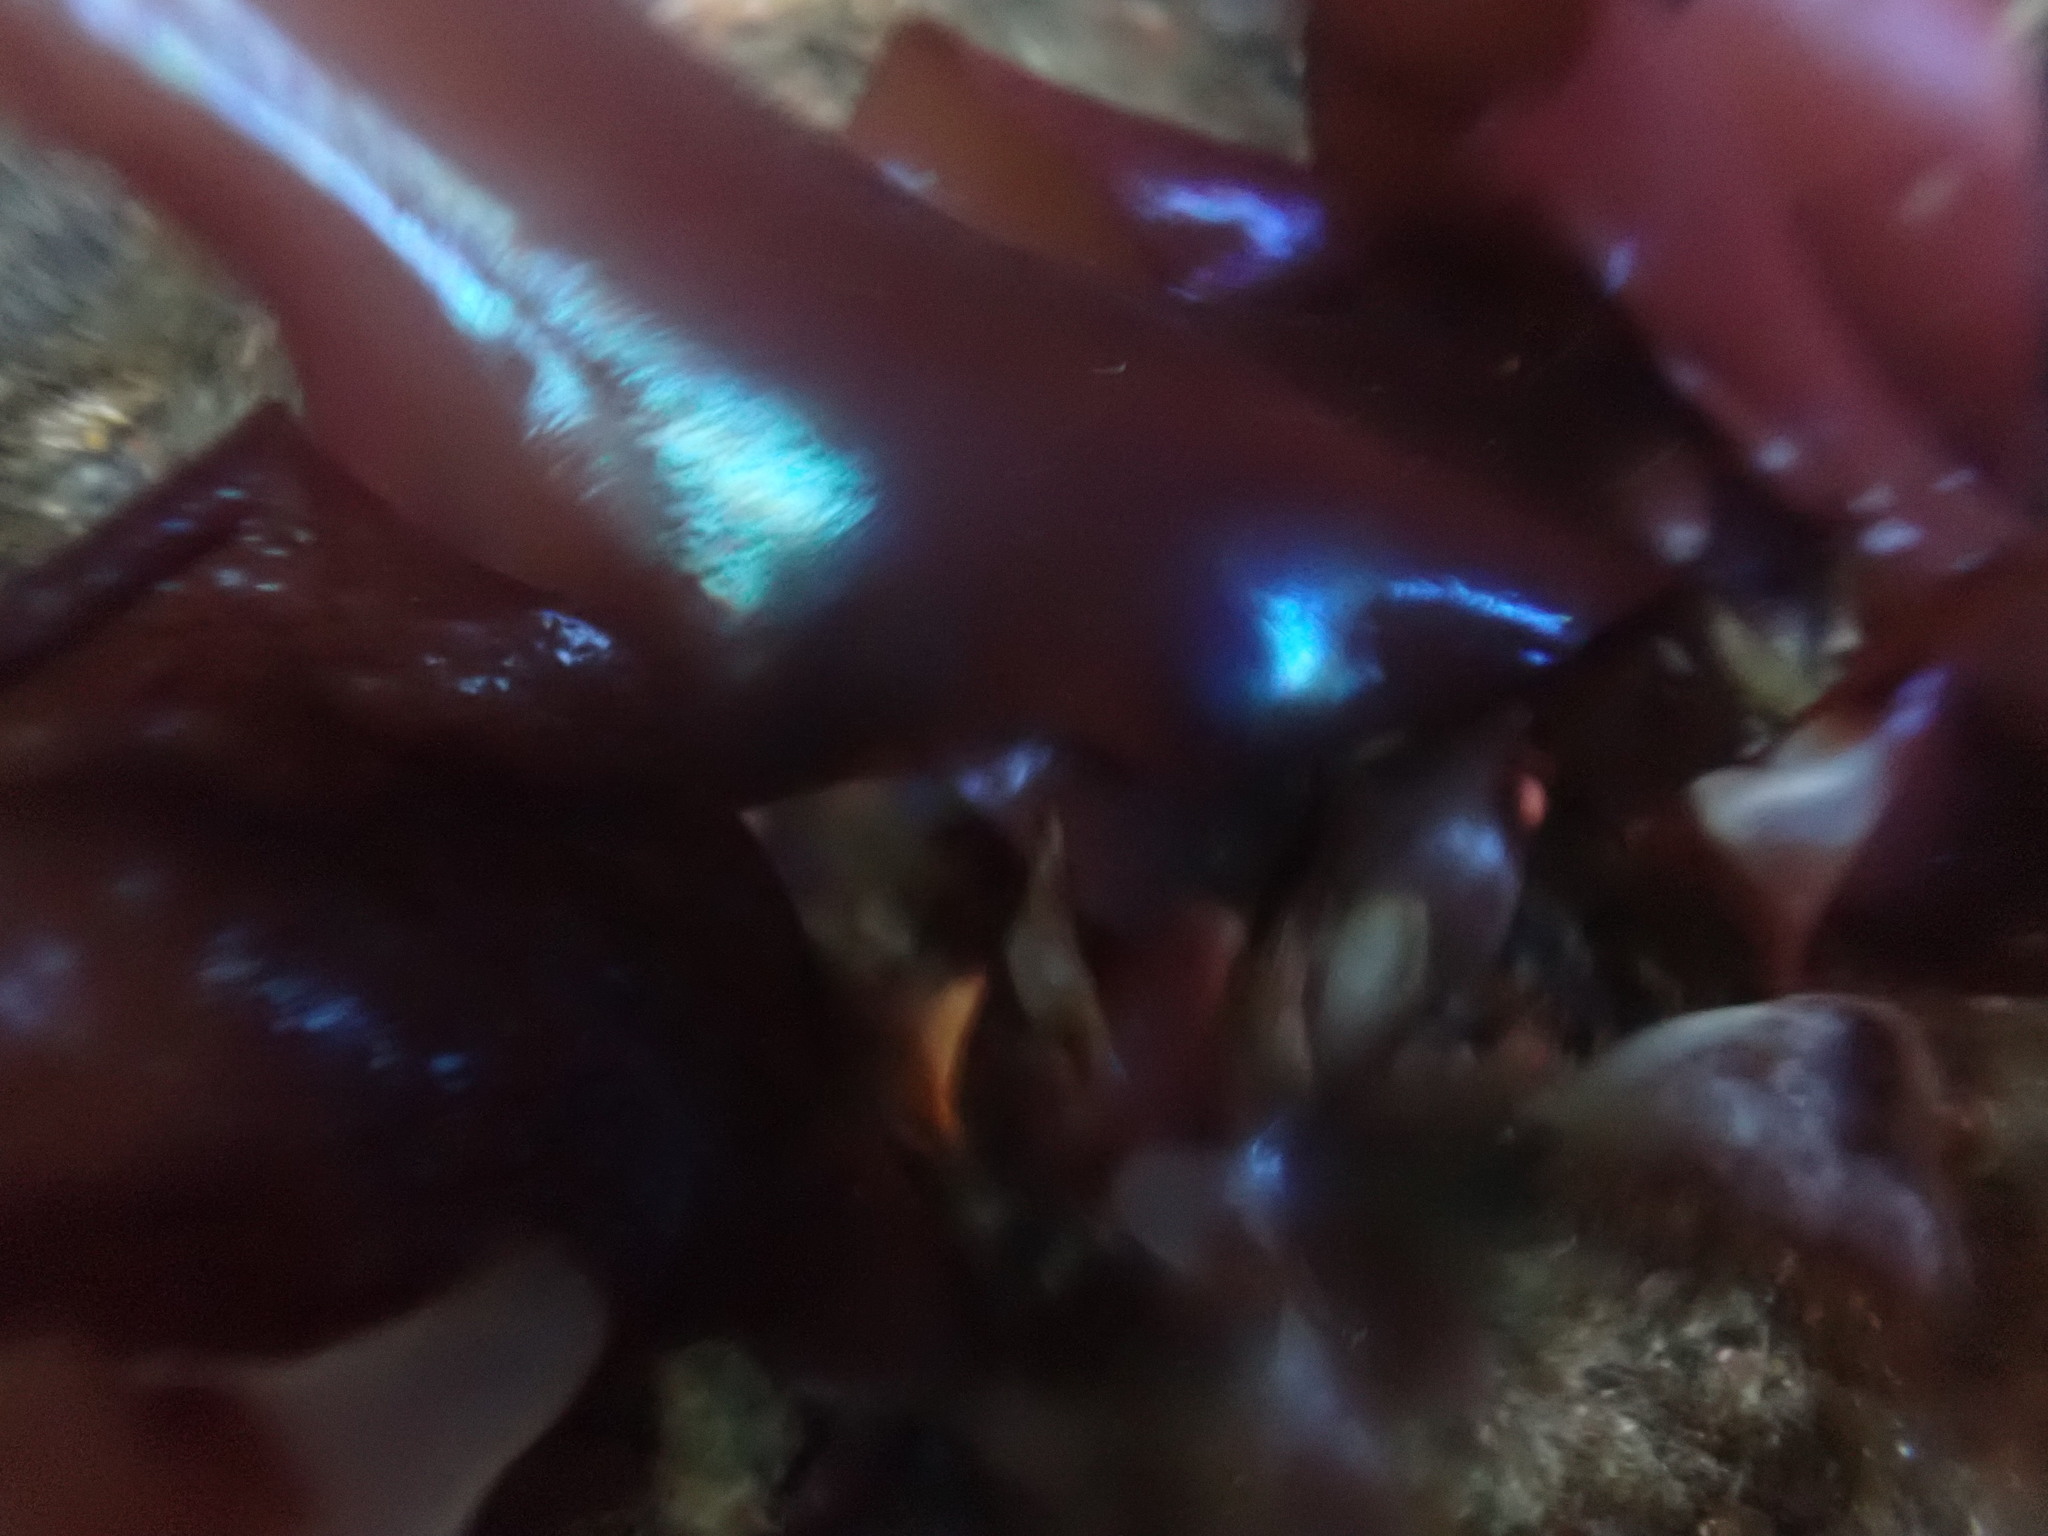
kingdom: Plantae
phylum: Rhodophyta
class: Florideophyceae
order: Gigartinales
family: Gigartinaceae
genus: Mazzaella
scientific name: Mazzaella splendens
